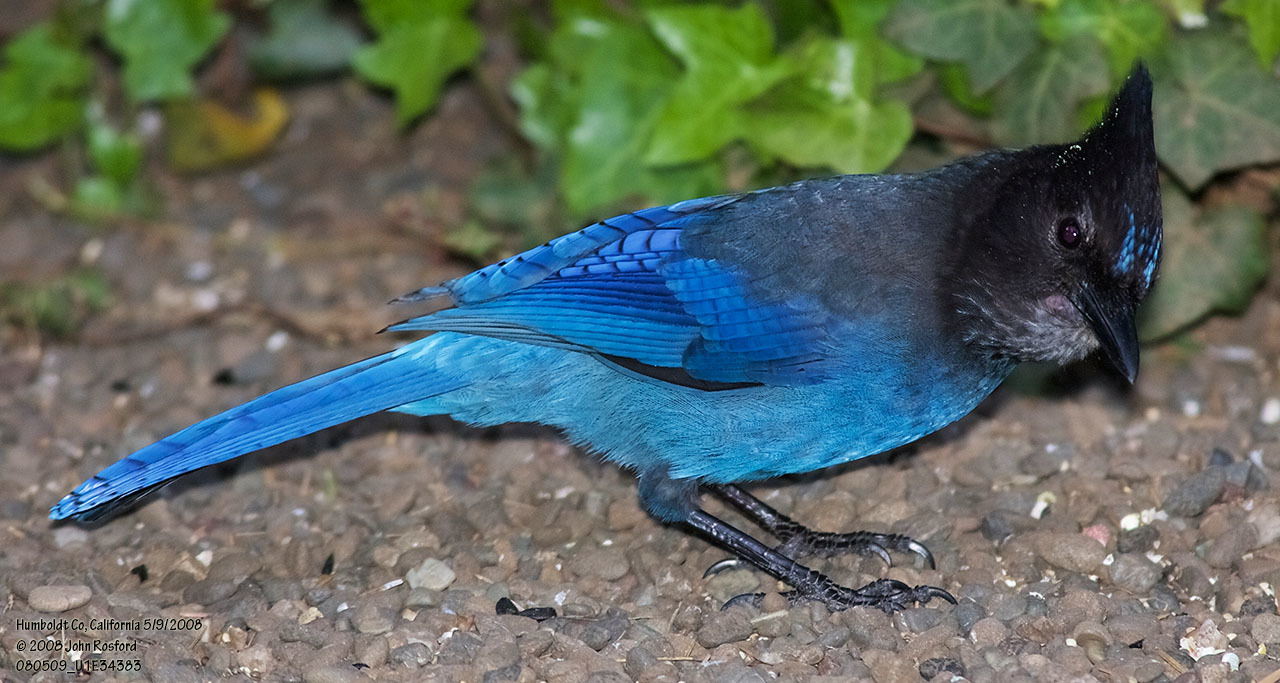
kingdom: Animalia
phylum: Chordata
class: Aves
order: Passeriformes
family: Corvidae
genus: Cyanocitta
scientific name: Cyanocitta stelleri
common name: Steller's jay
